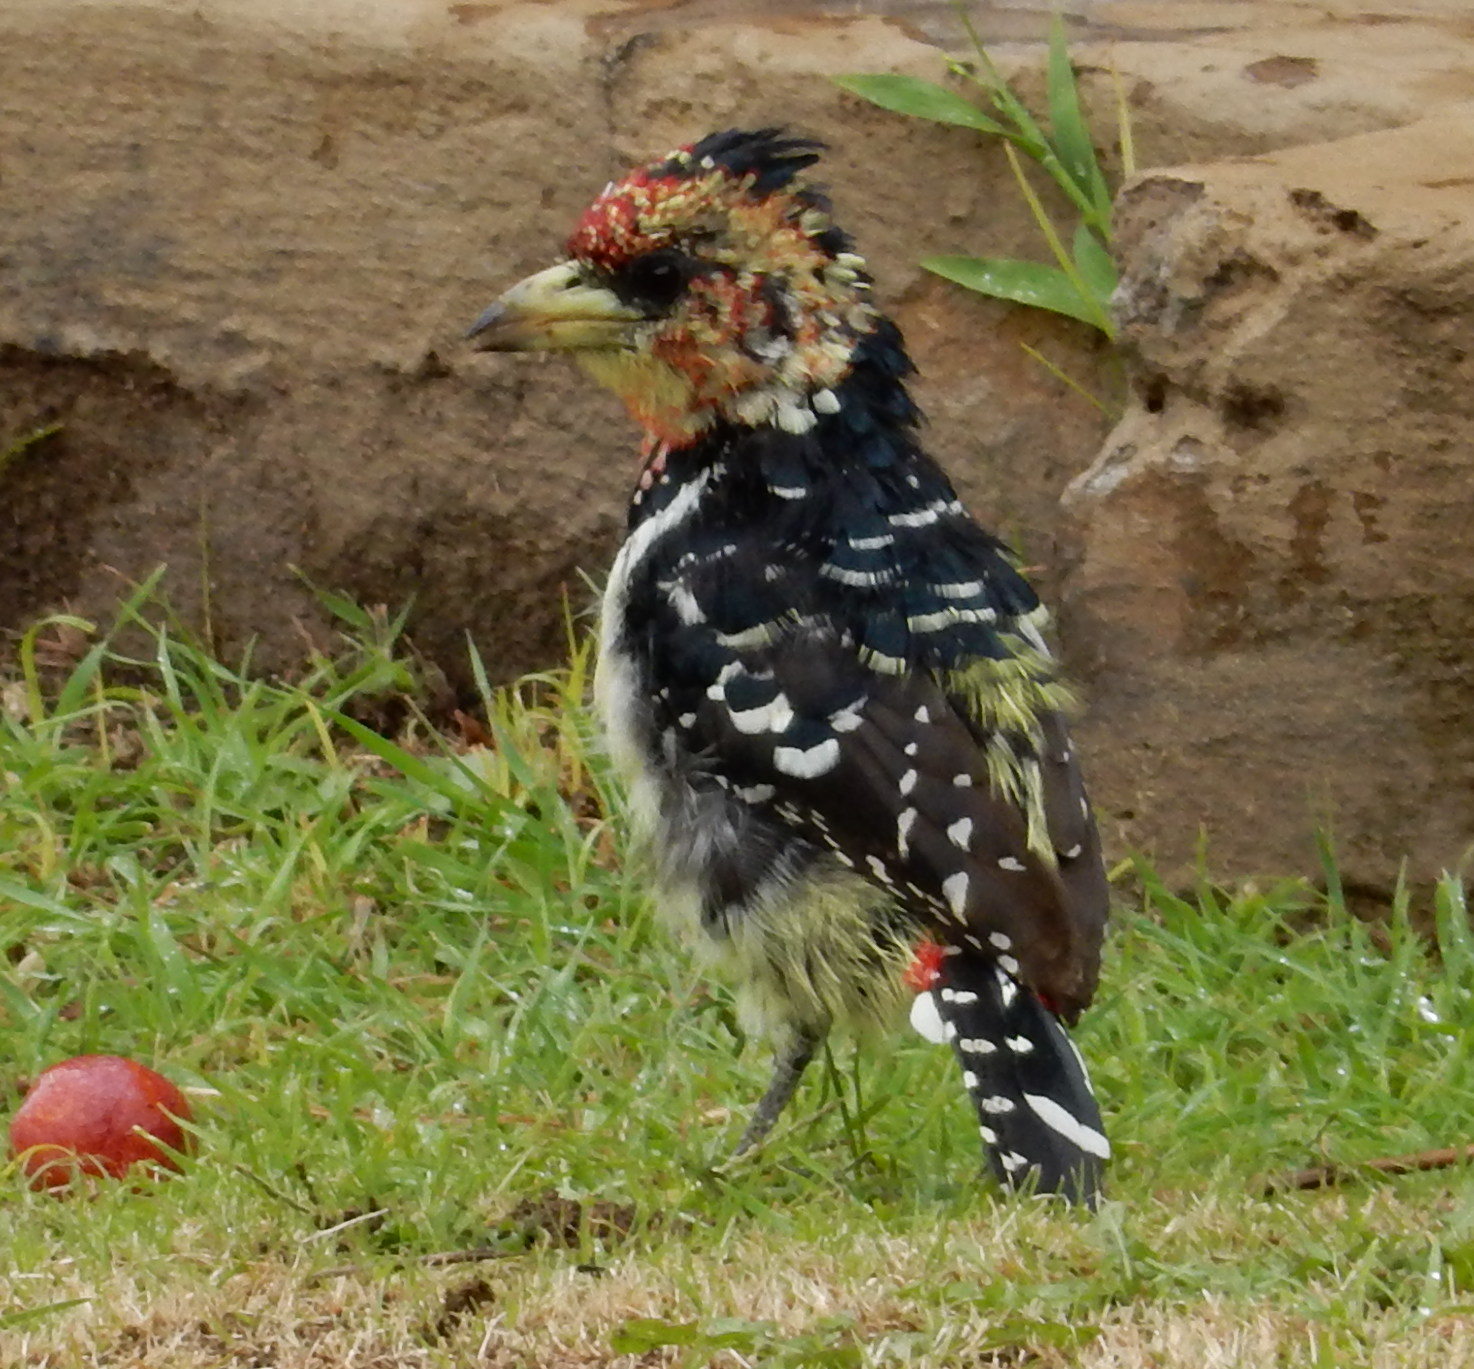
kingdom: Animalia
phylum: Chordata
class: Aves
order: Piciformes
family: Lybiidae
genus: Trachyphonus
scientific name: Trachyphonus vaillantii
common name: Crested barbet
